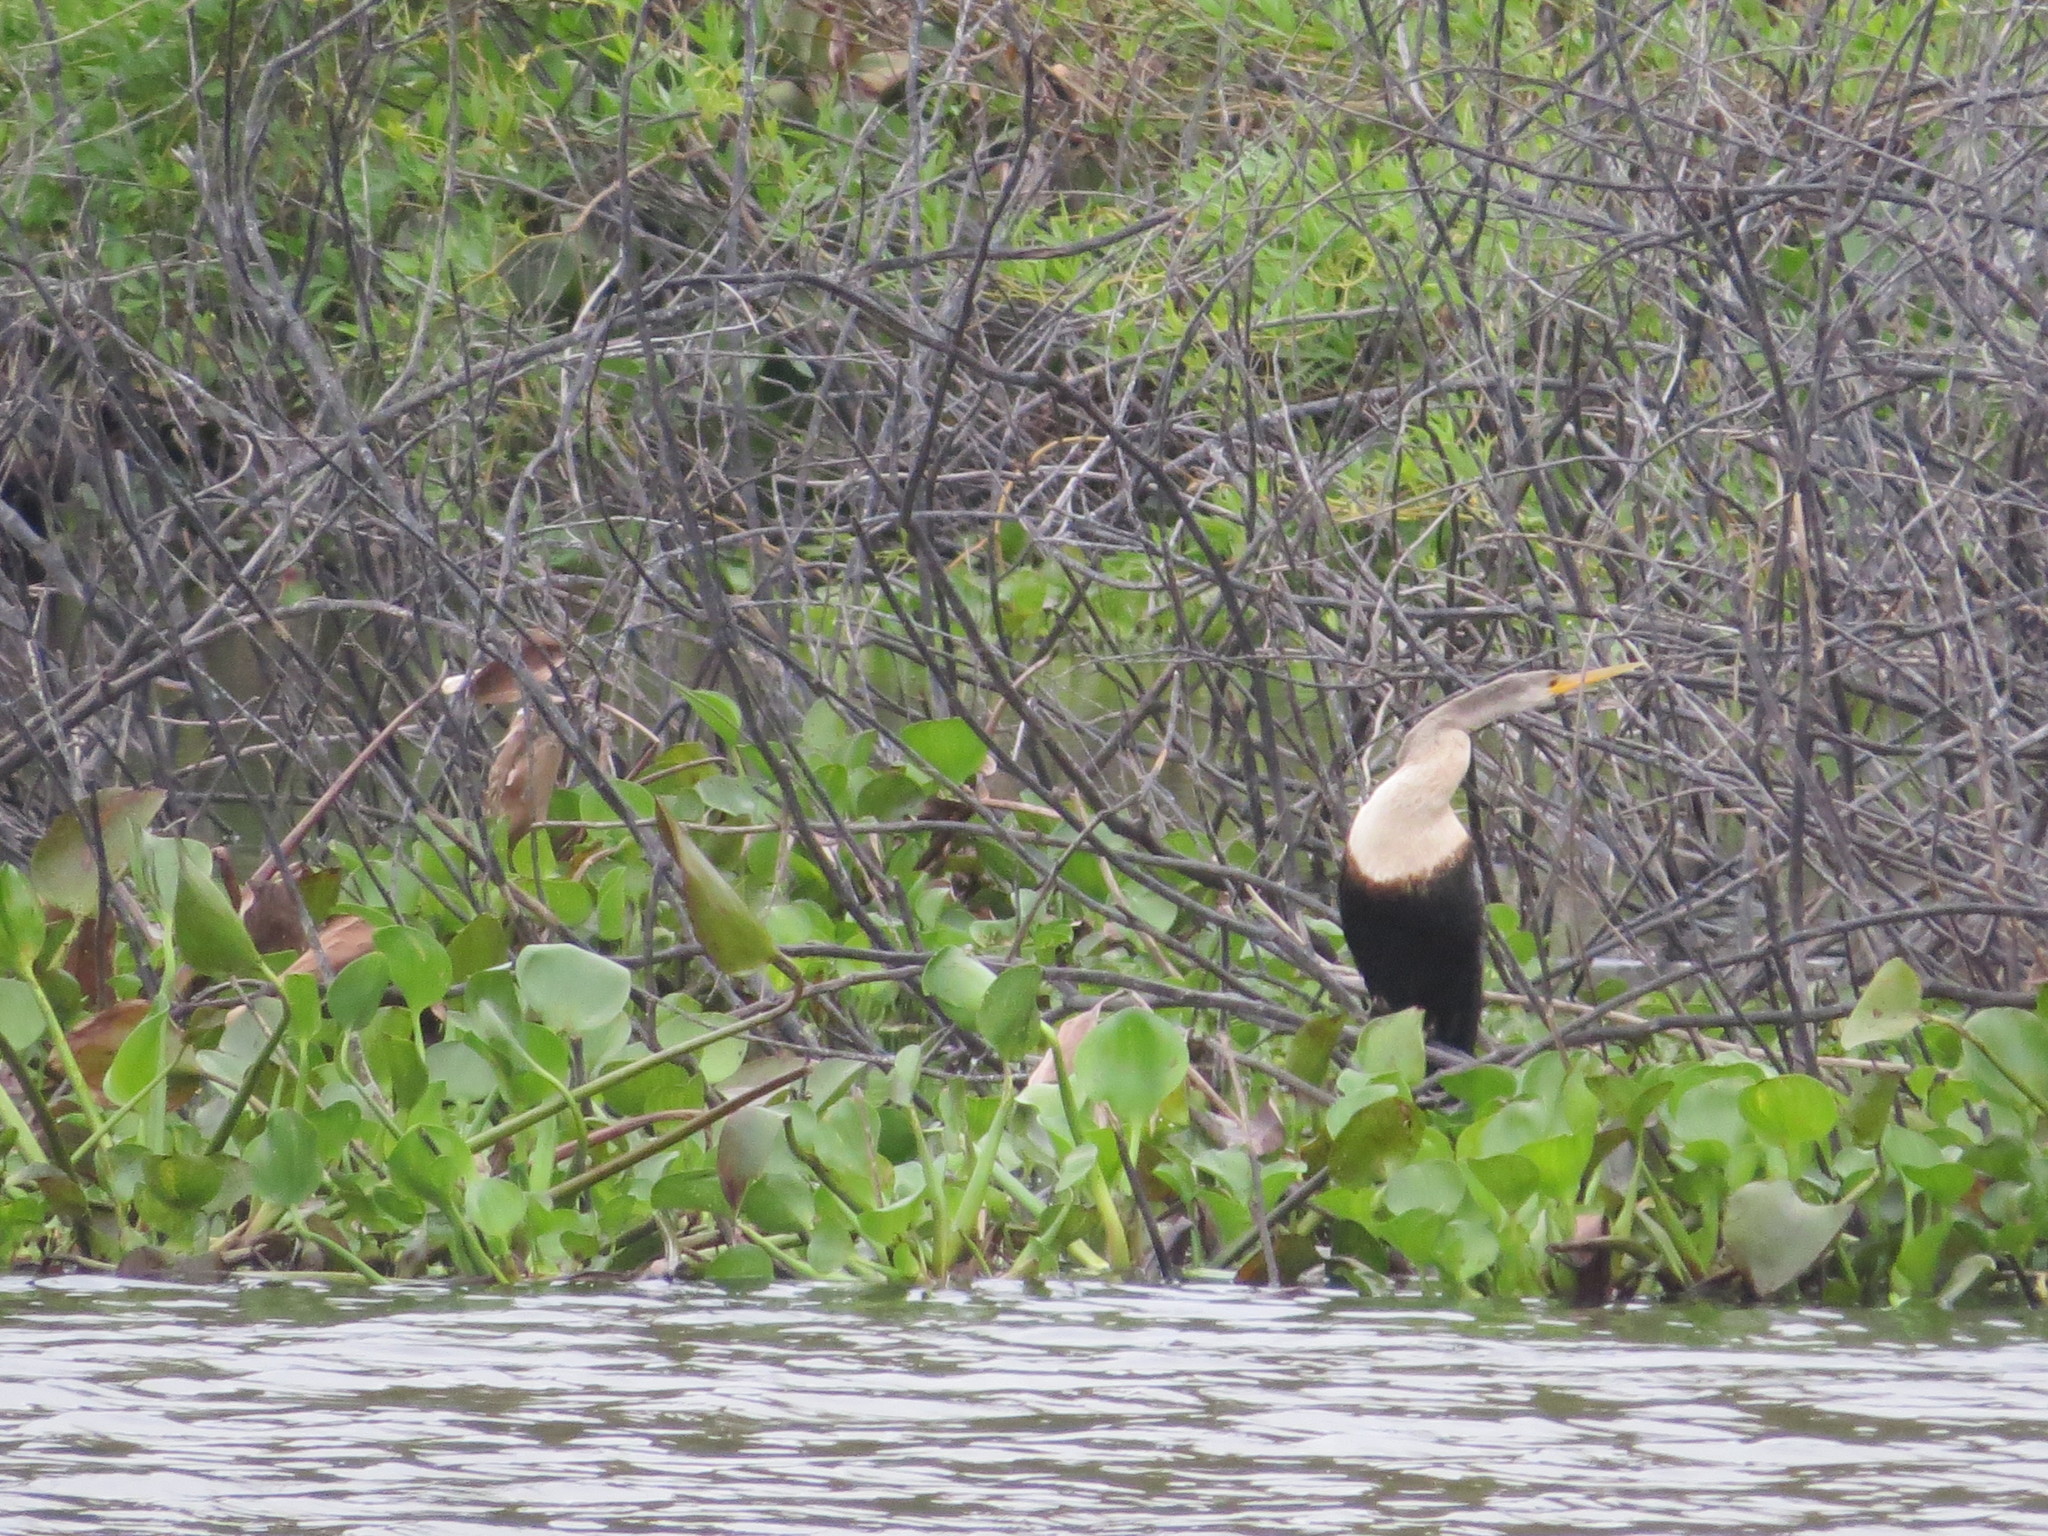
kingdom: Animalia
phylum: Chordata
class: Aves
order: Suliformes
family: Anhingidae
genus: Anhinga
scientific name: Anhinga anhinga
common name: Anhinga
